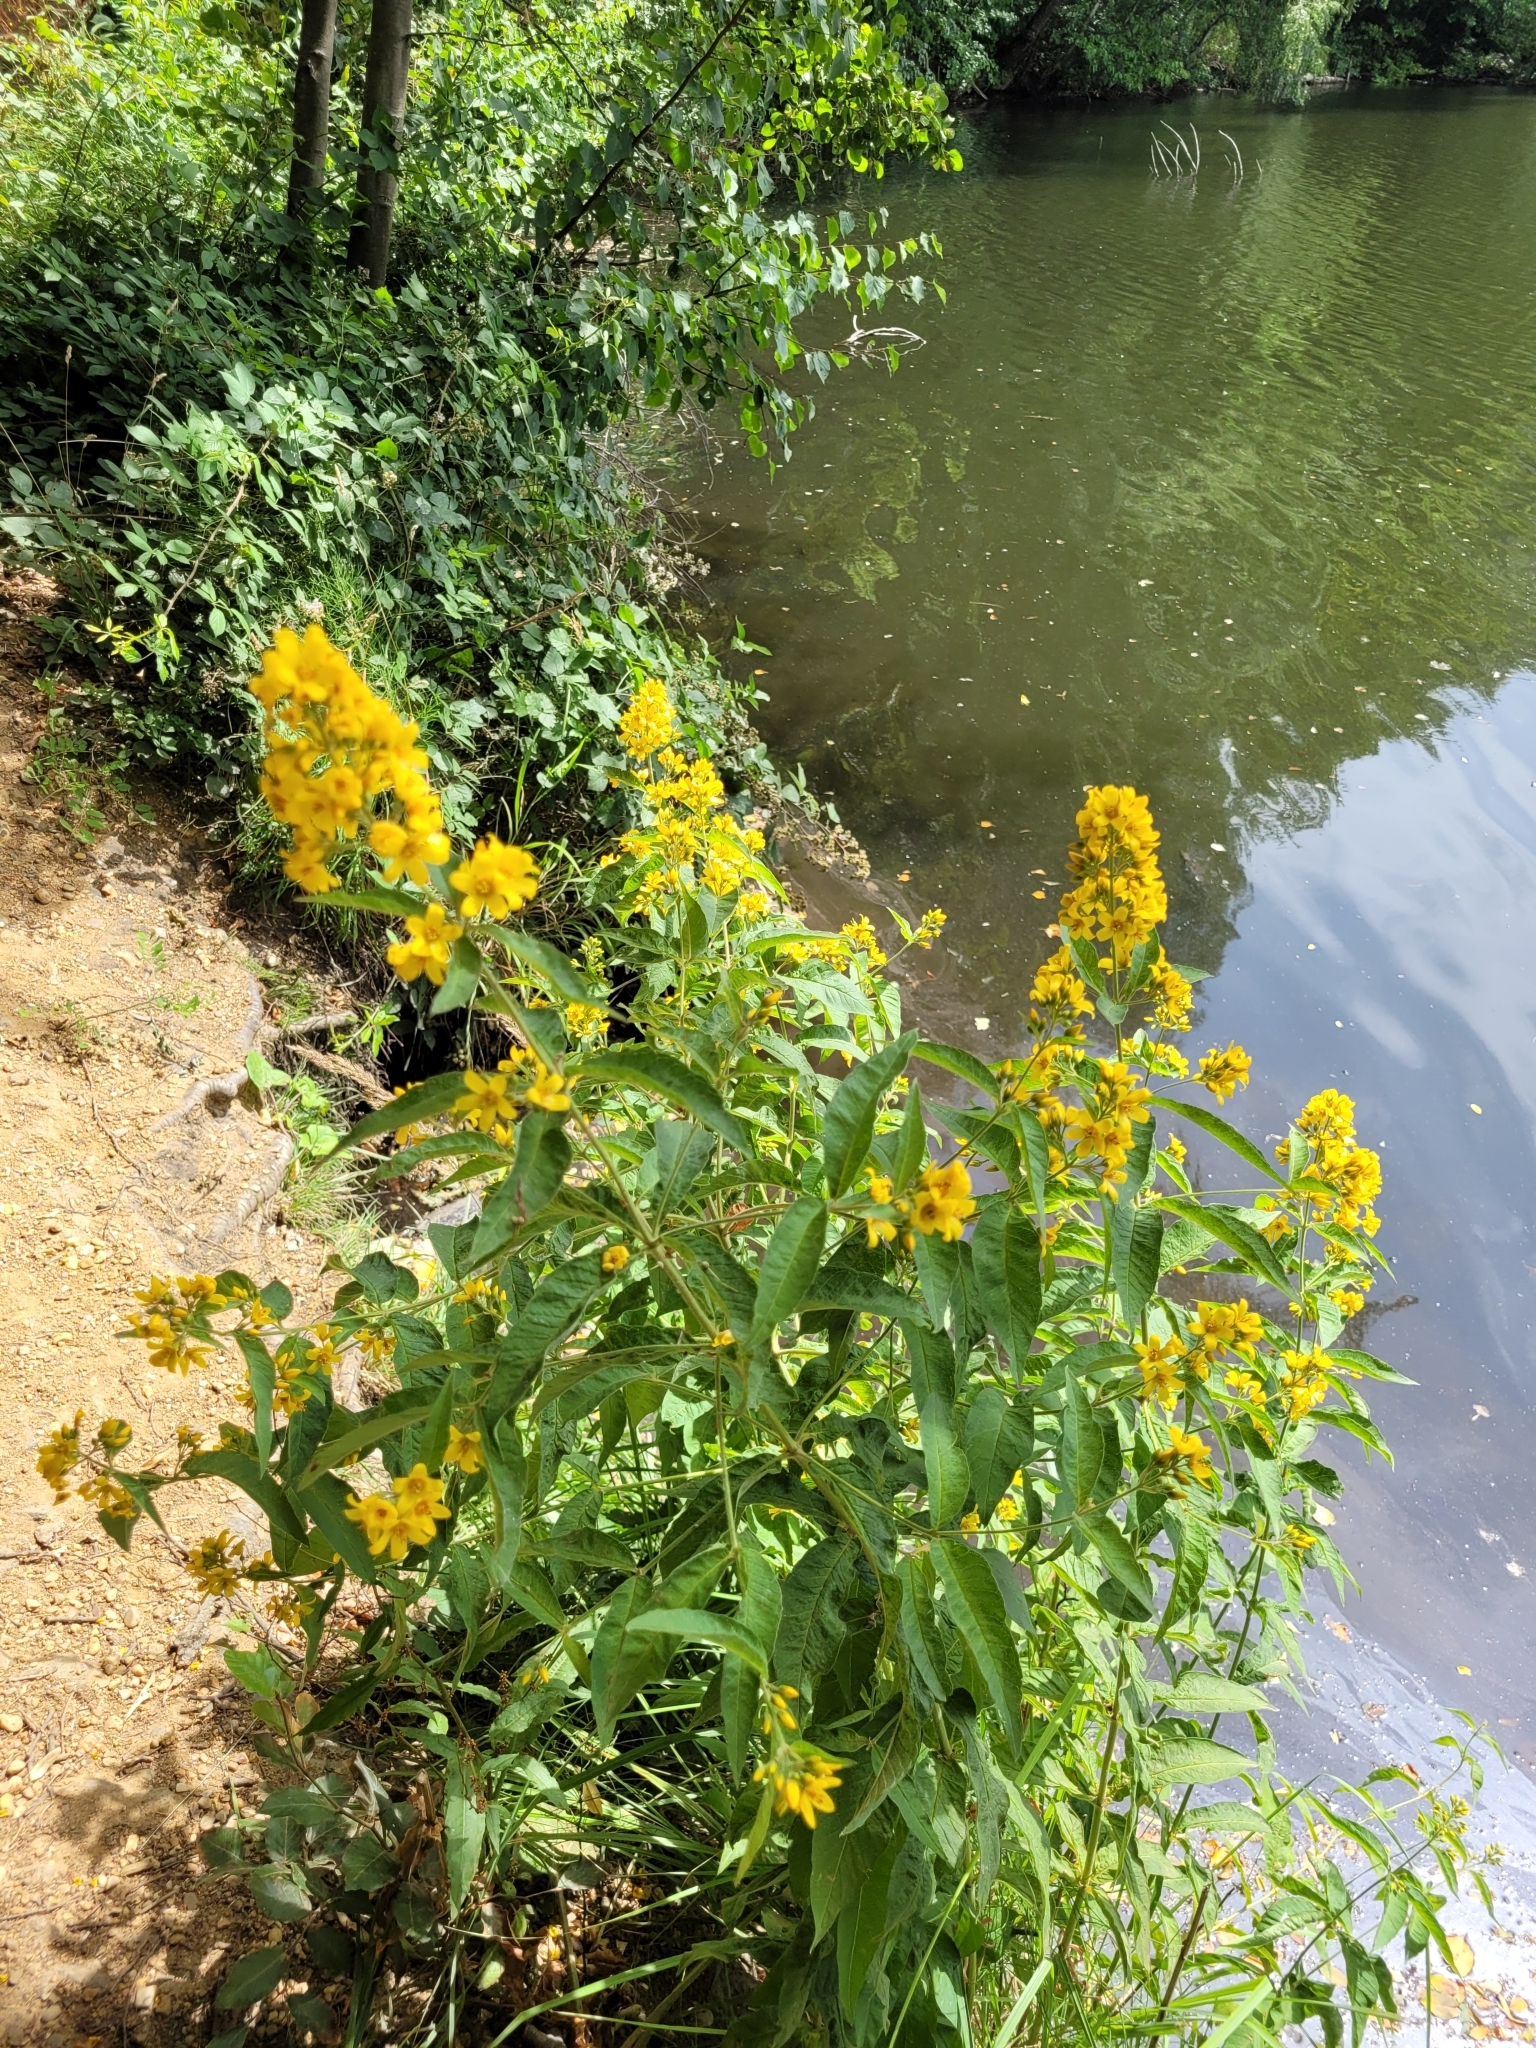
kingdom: Plantae
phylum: Tracheophyta
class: Magnoliopsida
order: Ericales
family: Primulaceae
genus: Lysimachia
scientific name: Lysimachia vulgaris
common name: Yellow loosestrife
